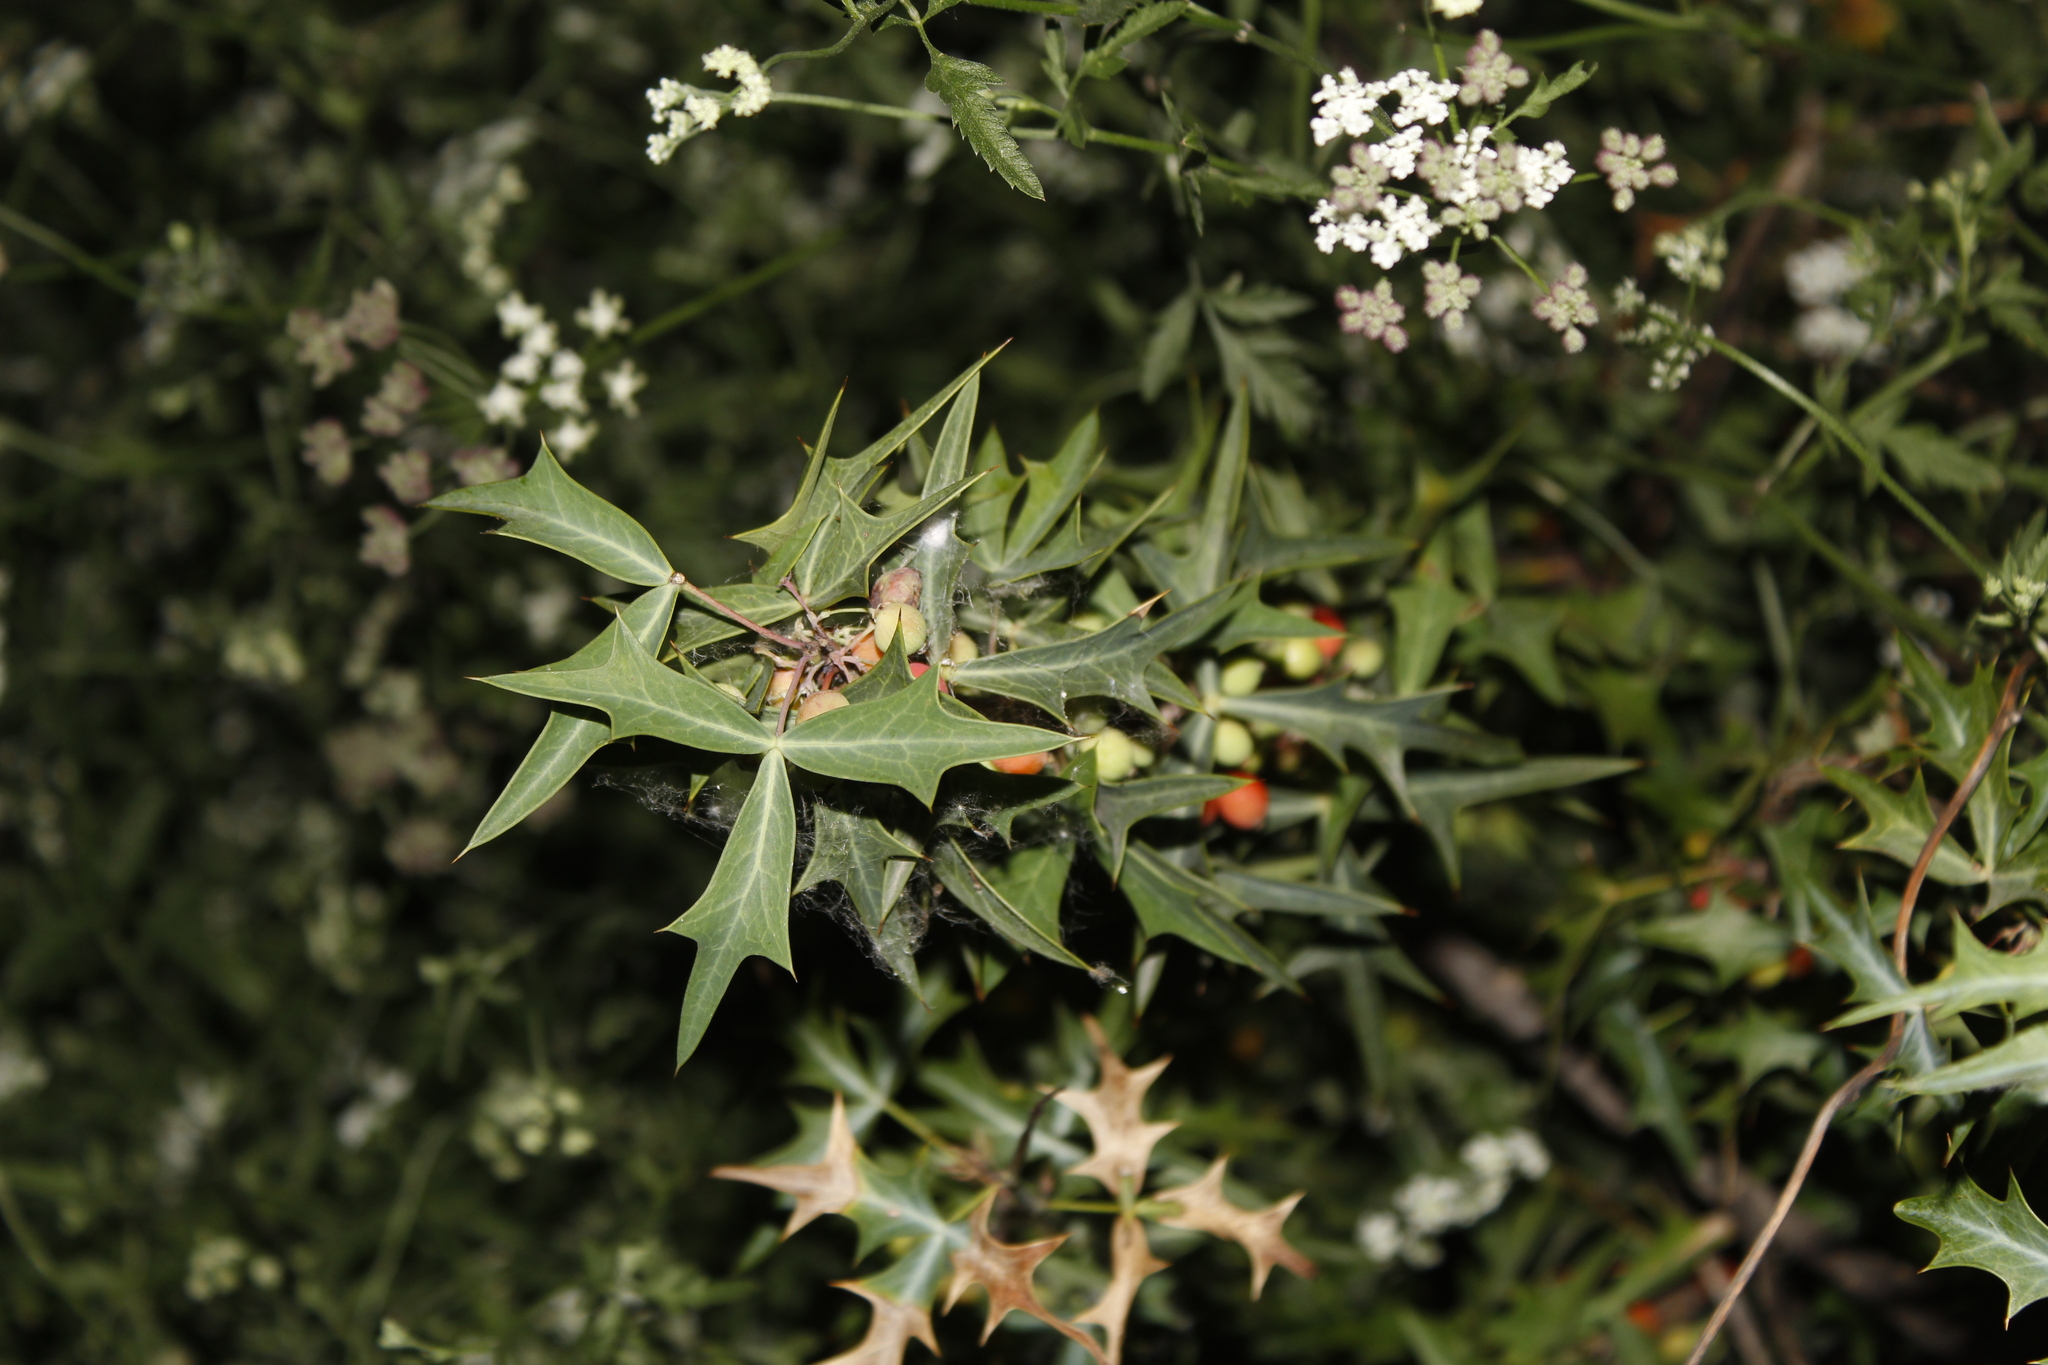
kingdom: Plantae
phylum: Tracheophyta
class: Magnoliopsida
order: Ranunculales
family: Berberidaceae
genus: Alloberberis
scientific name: Alloberberis trifoliolata
